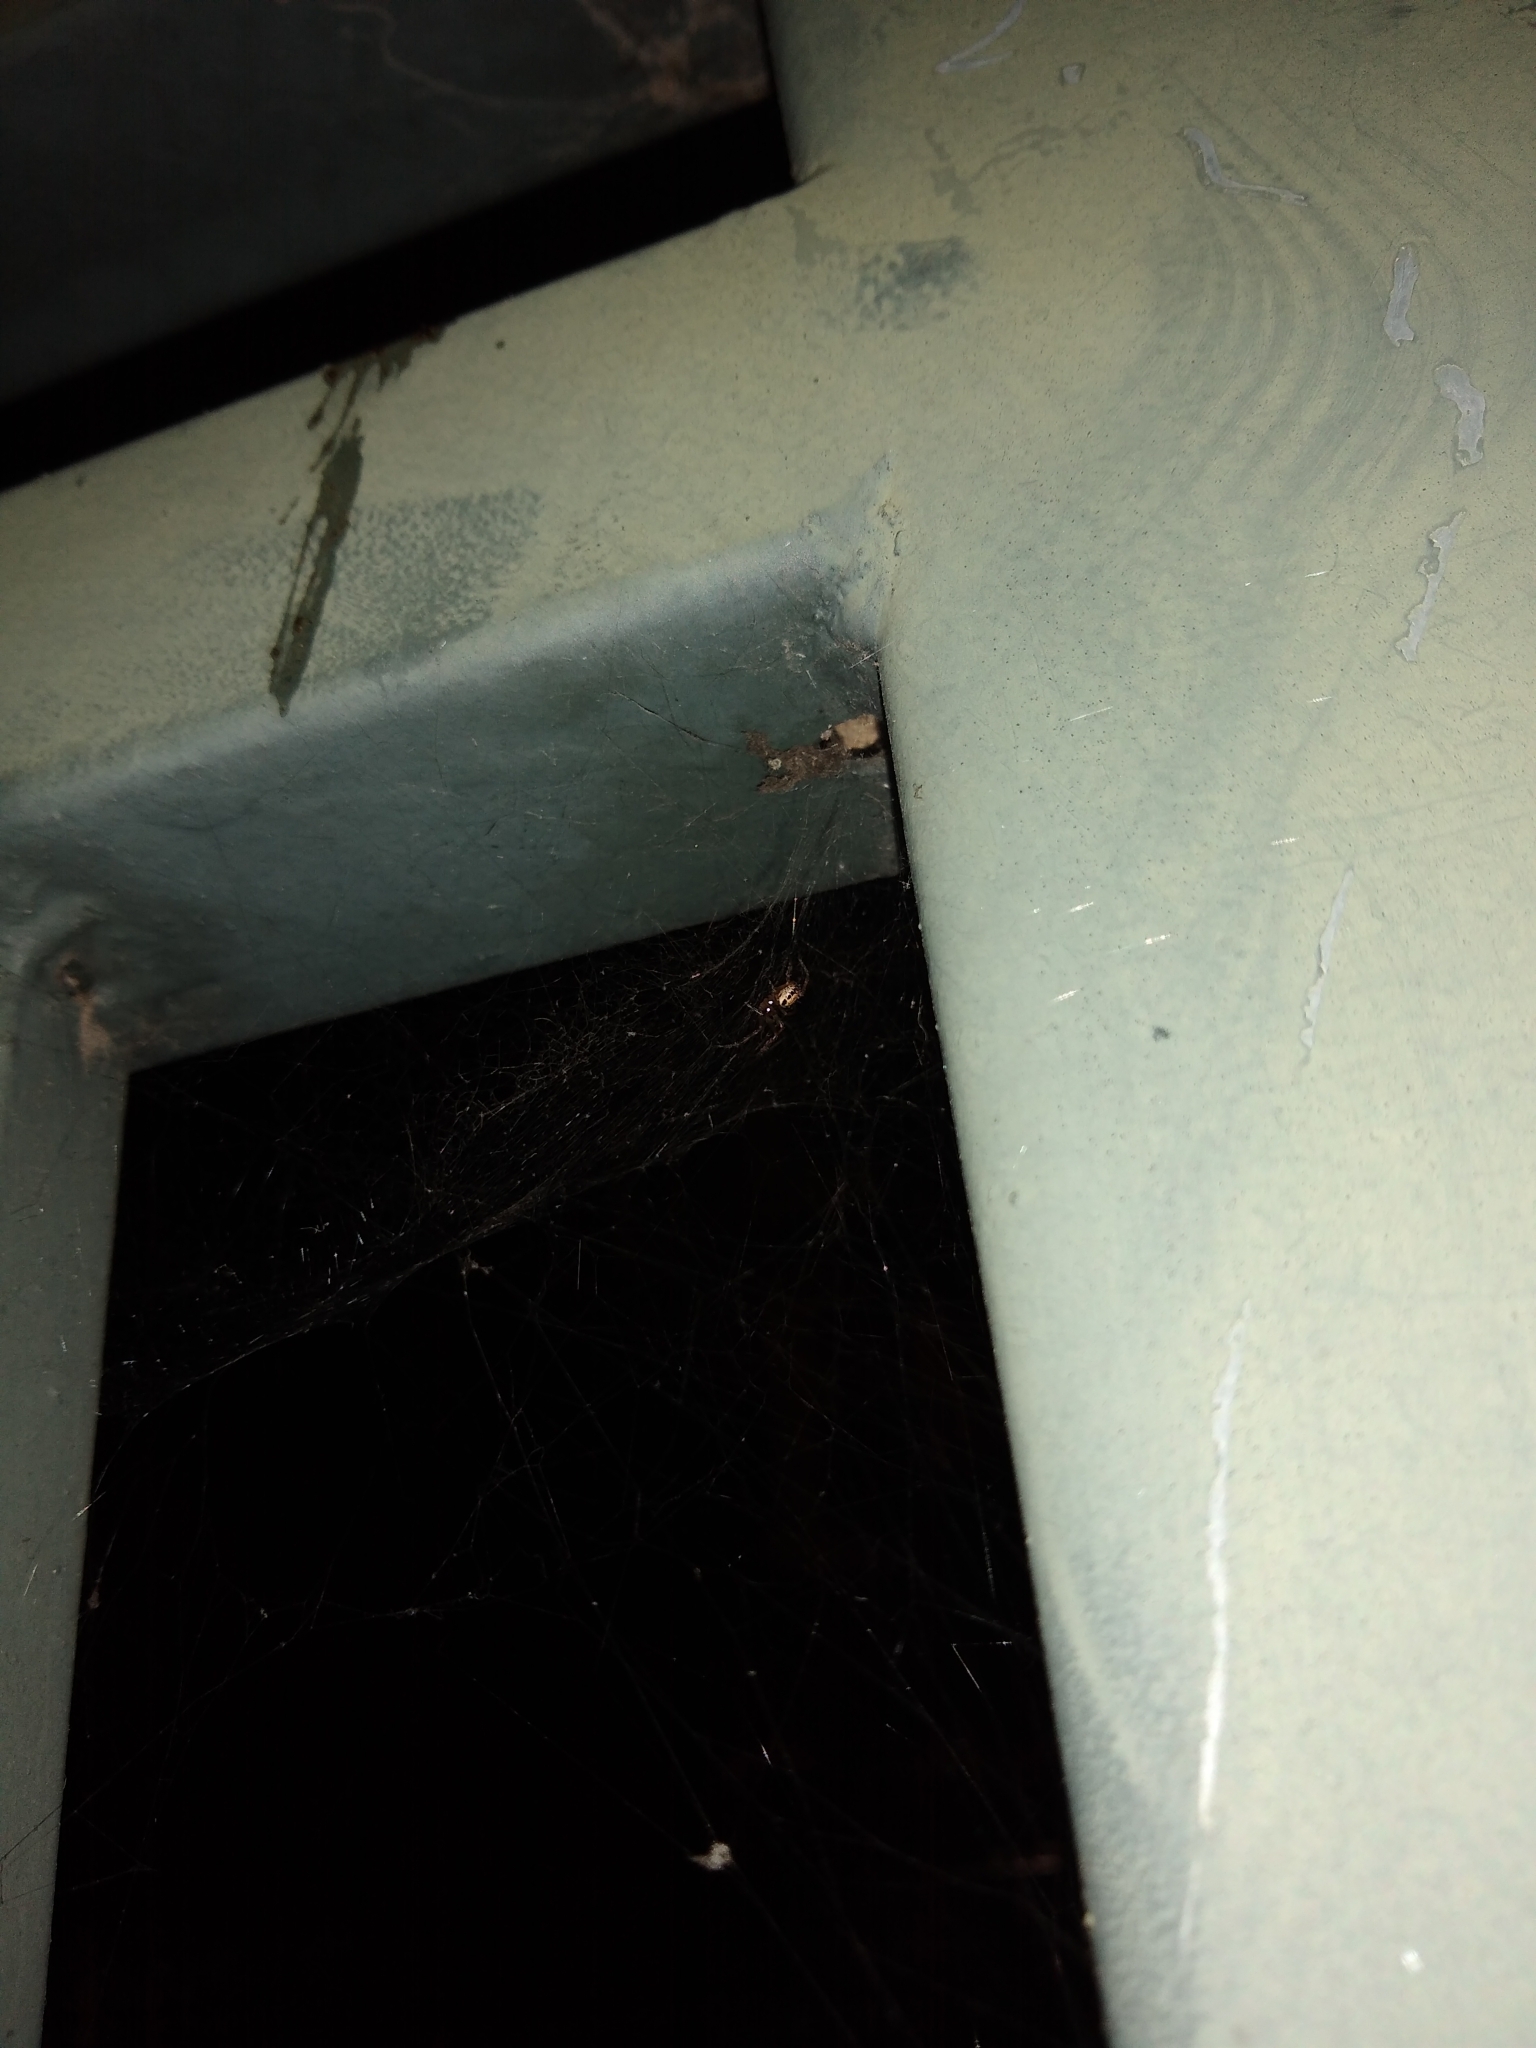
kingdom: Animalia
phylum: Arthropoda
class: Arachnida
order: Araneae
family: Theridiidae
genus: Steatoda
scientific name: Steatoda nobilis
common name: Cobweb weaver
